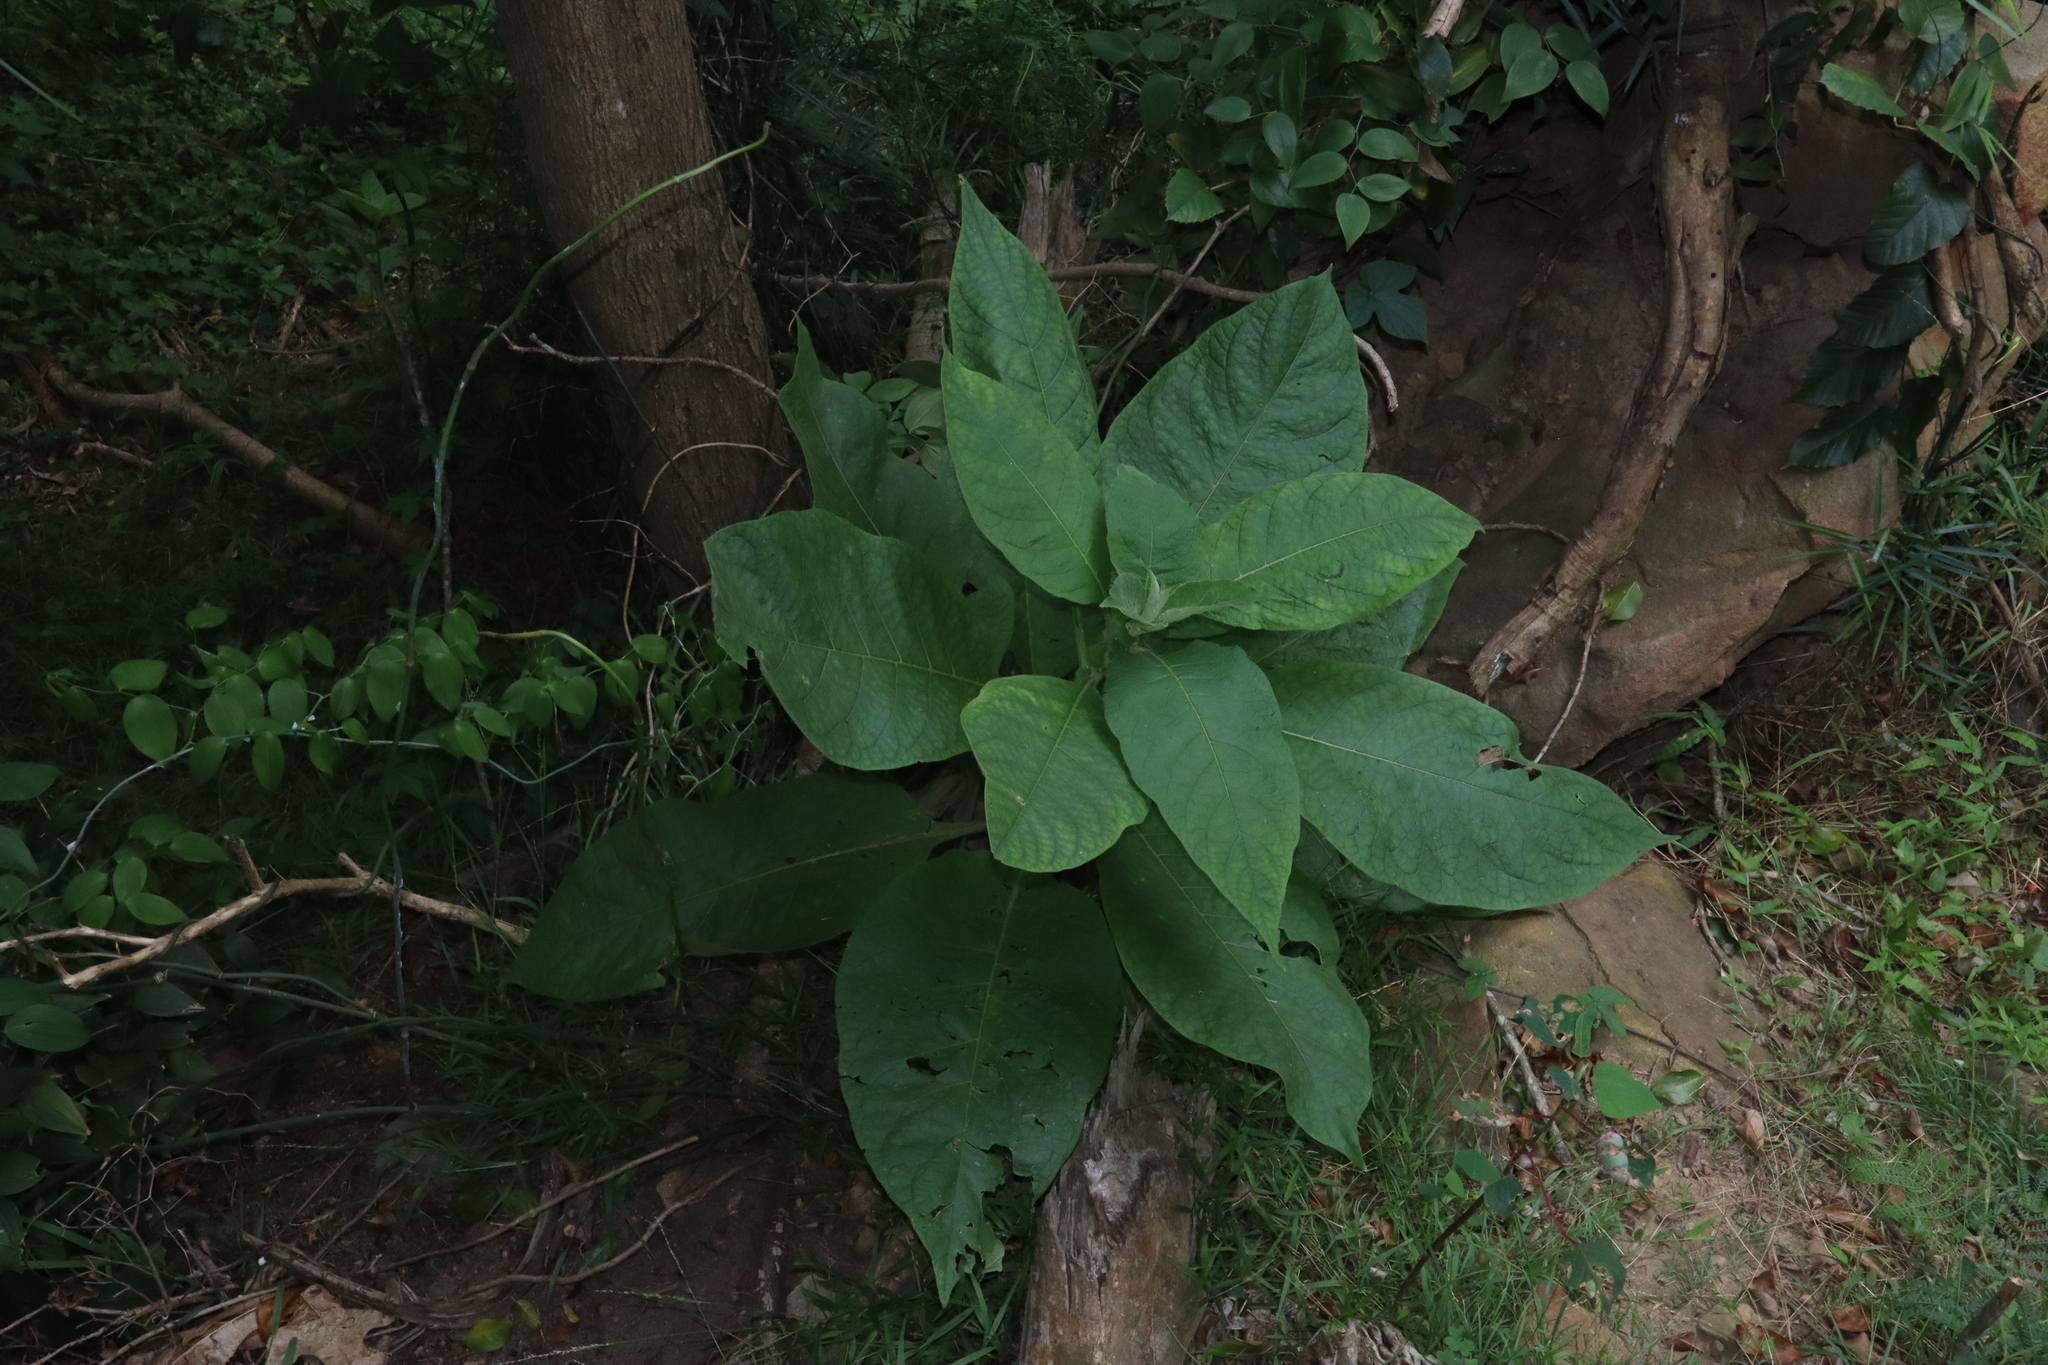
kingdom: Plantae
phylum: Tracheophyta
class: Magnoliopsida
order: Solanales
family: Solanaceae
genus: Solanum
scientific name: Solanum mauritianum
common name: Earleaf nightshade
